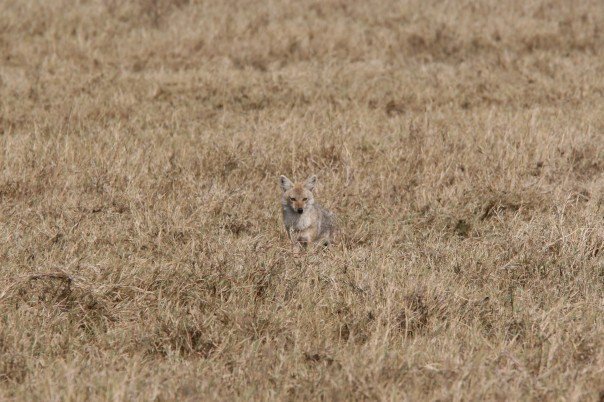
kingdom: Animalia
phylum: Chordata
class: Mammalia
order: Carnivora
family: Canidae
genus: Canis
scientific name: Canis lupaster
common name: African golden wolf
